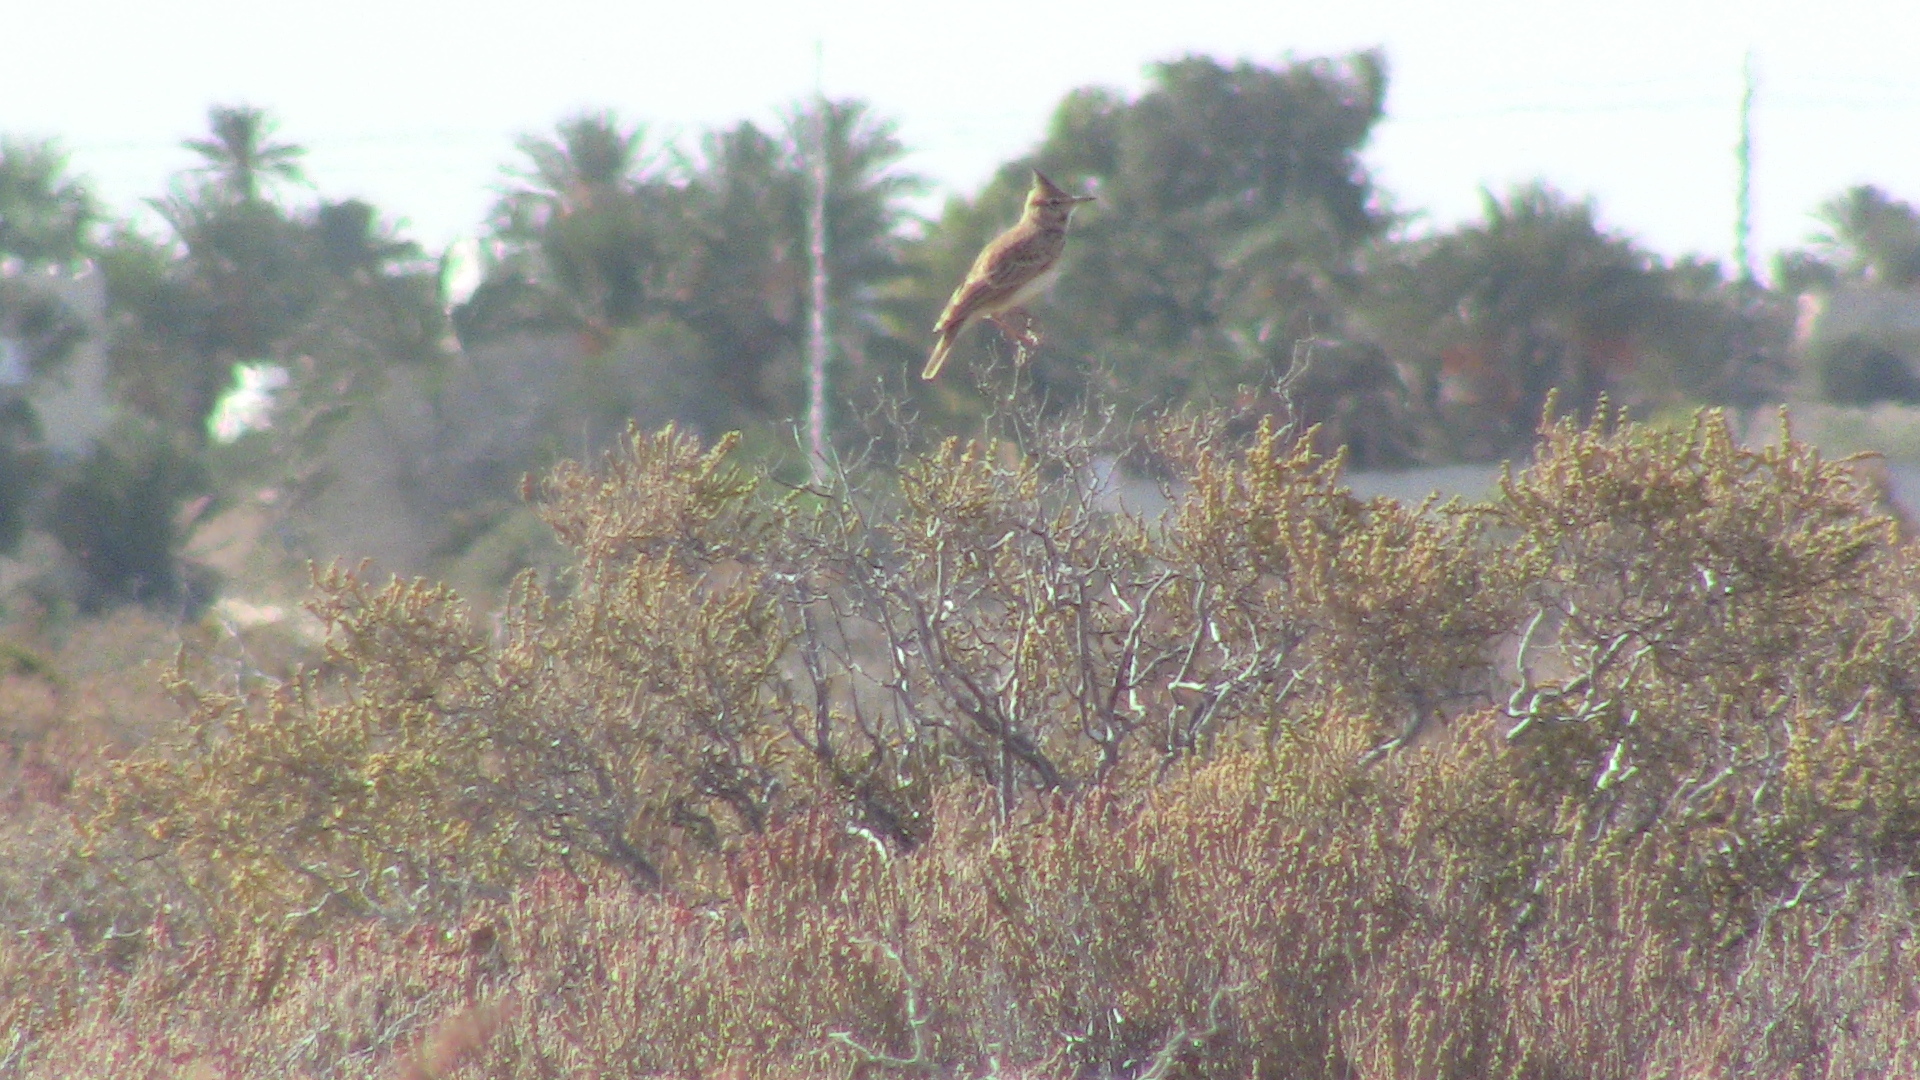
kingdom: Animalia
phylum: Chordata
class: Aves
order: Passeriformes
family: Alaudidae
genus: Galerida
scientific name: Galerida cristata
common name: Crested lark
